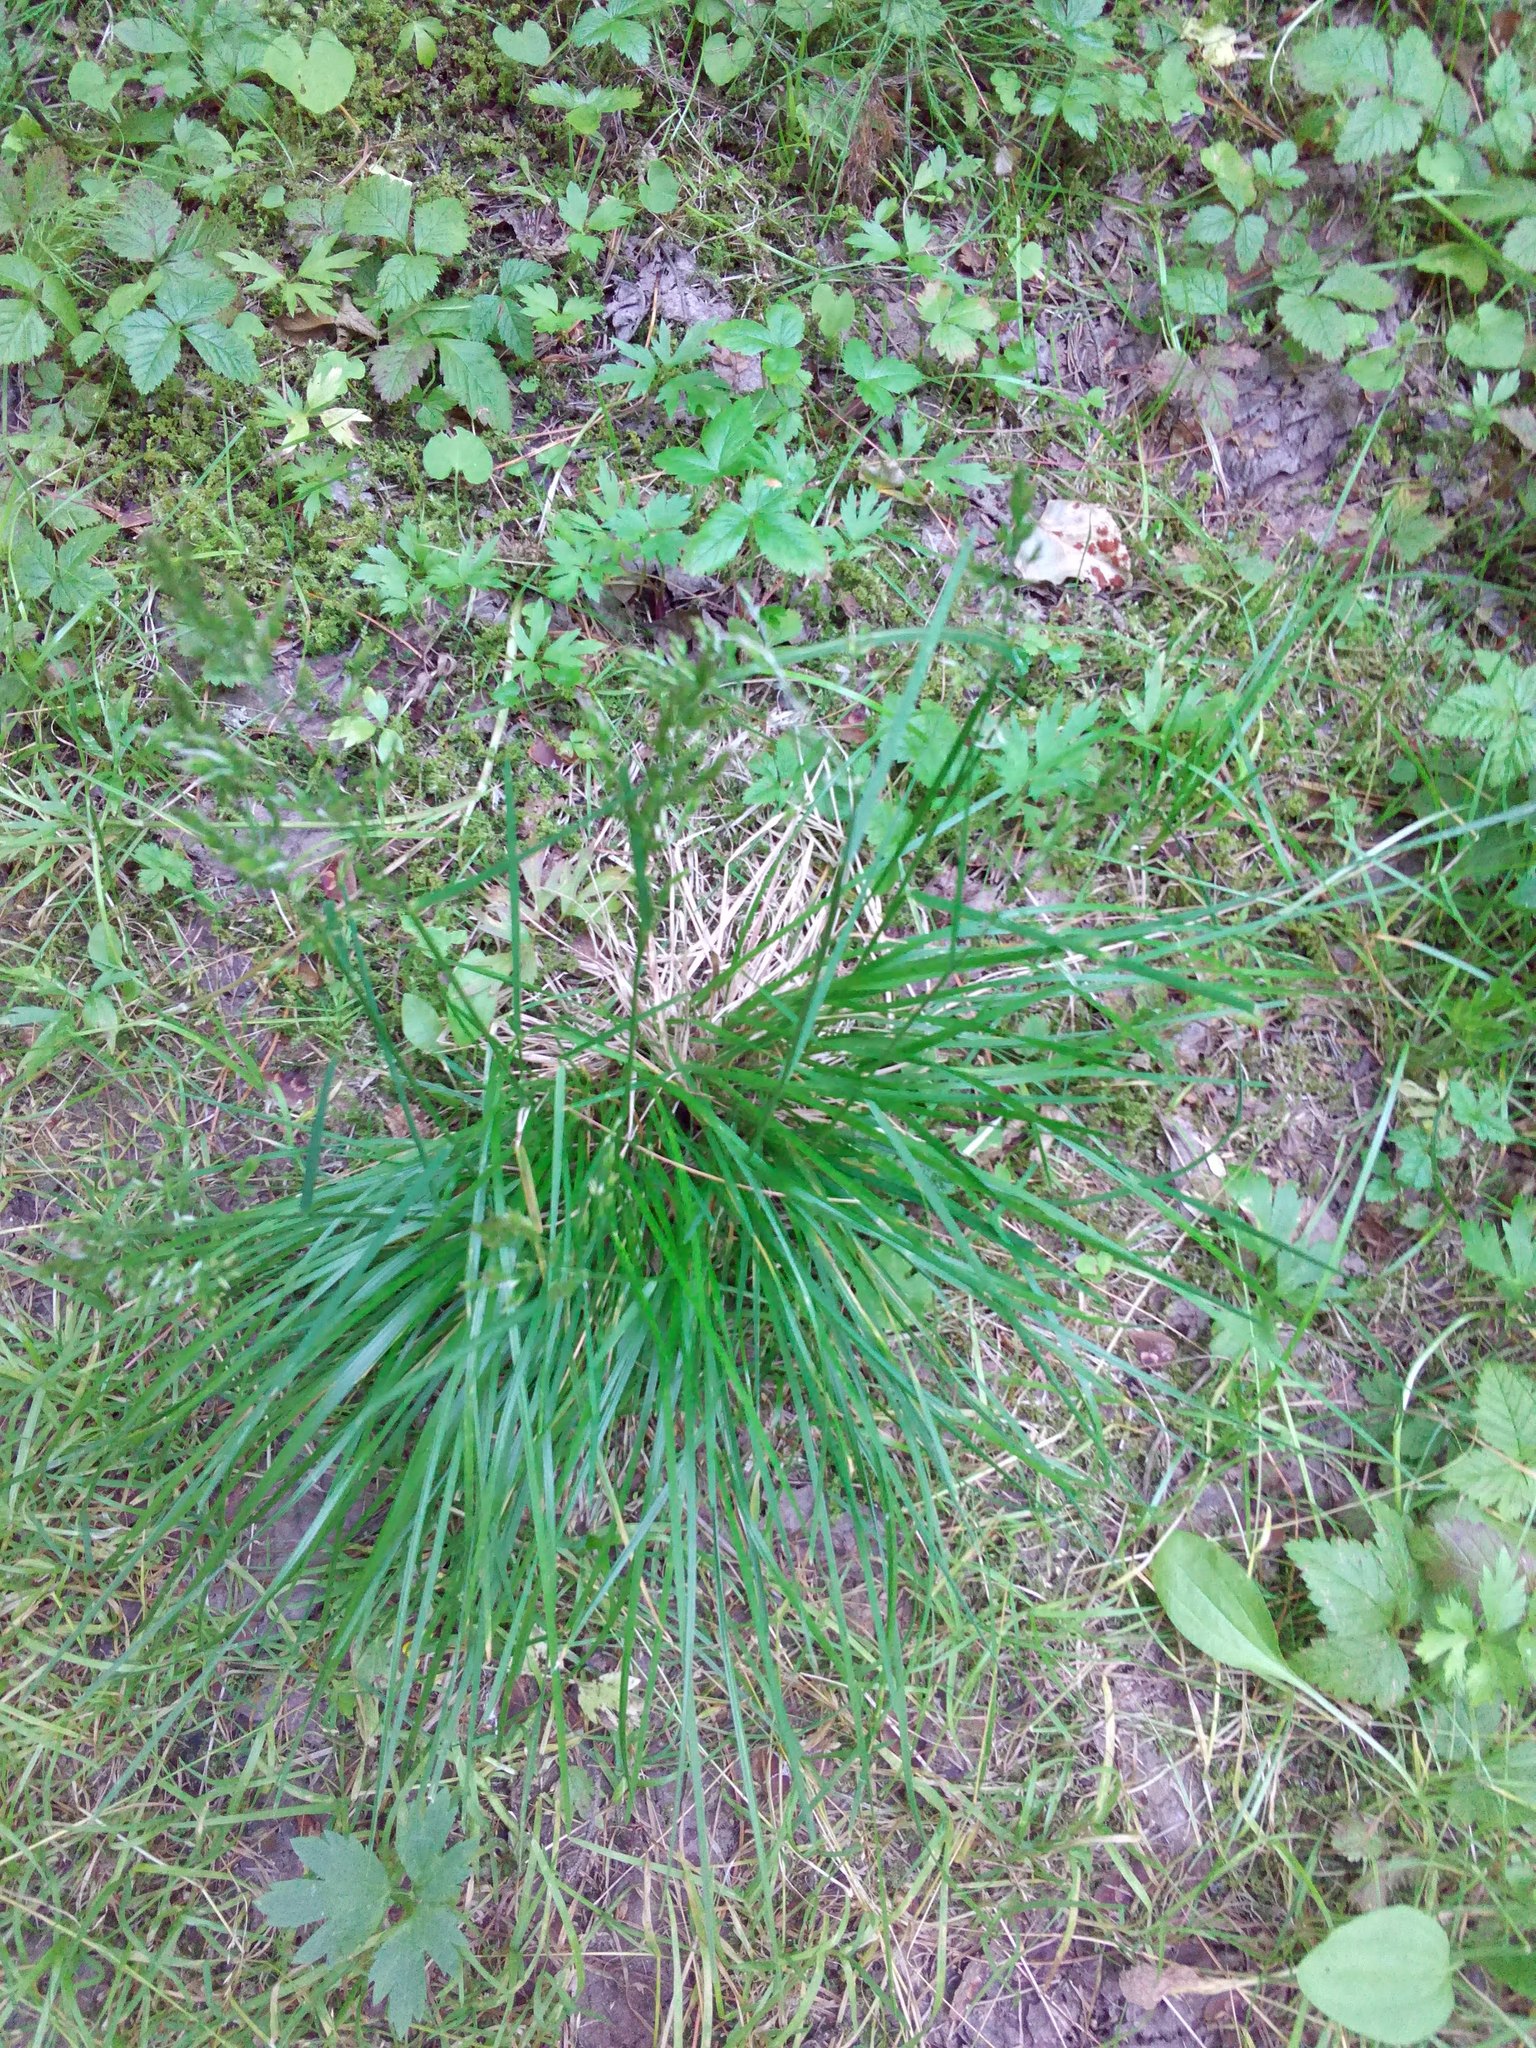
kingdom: Plantae
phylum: Tracheophyta
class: Liliopsida
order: Poales
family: Poaceae
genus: Deschampsia
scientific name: Deschampsia cespitosa
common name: Tufted hair-grass
